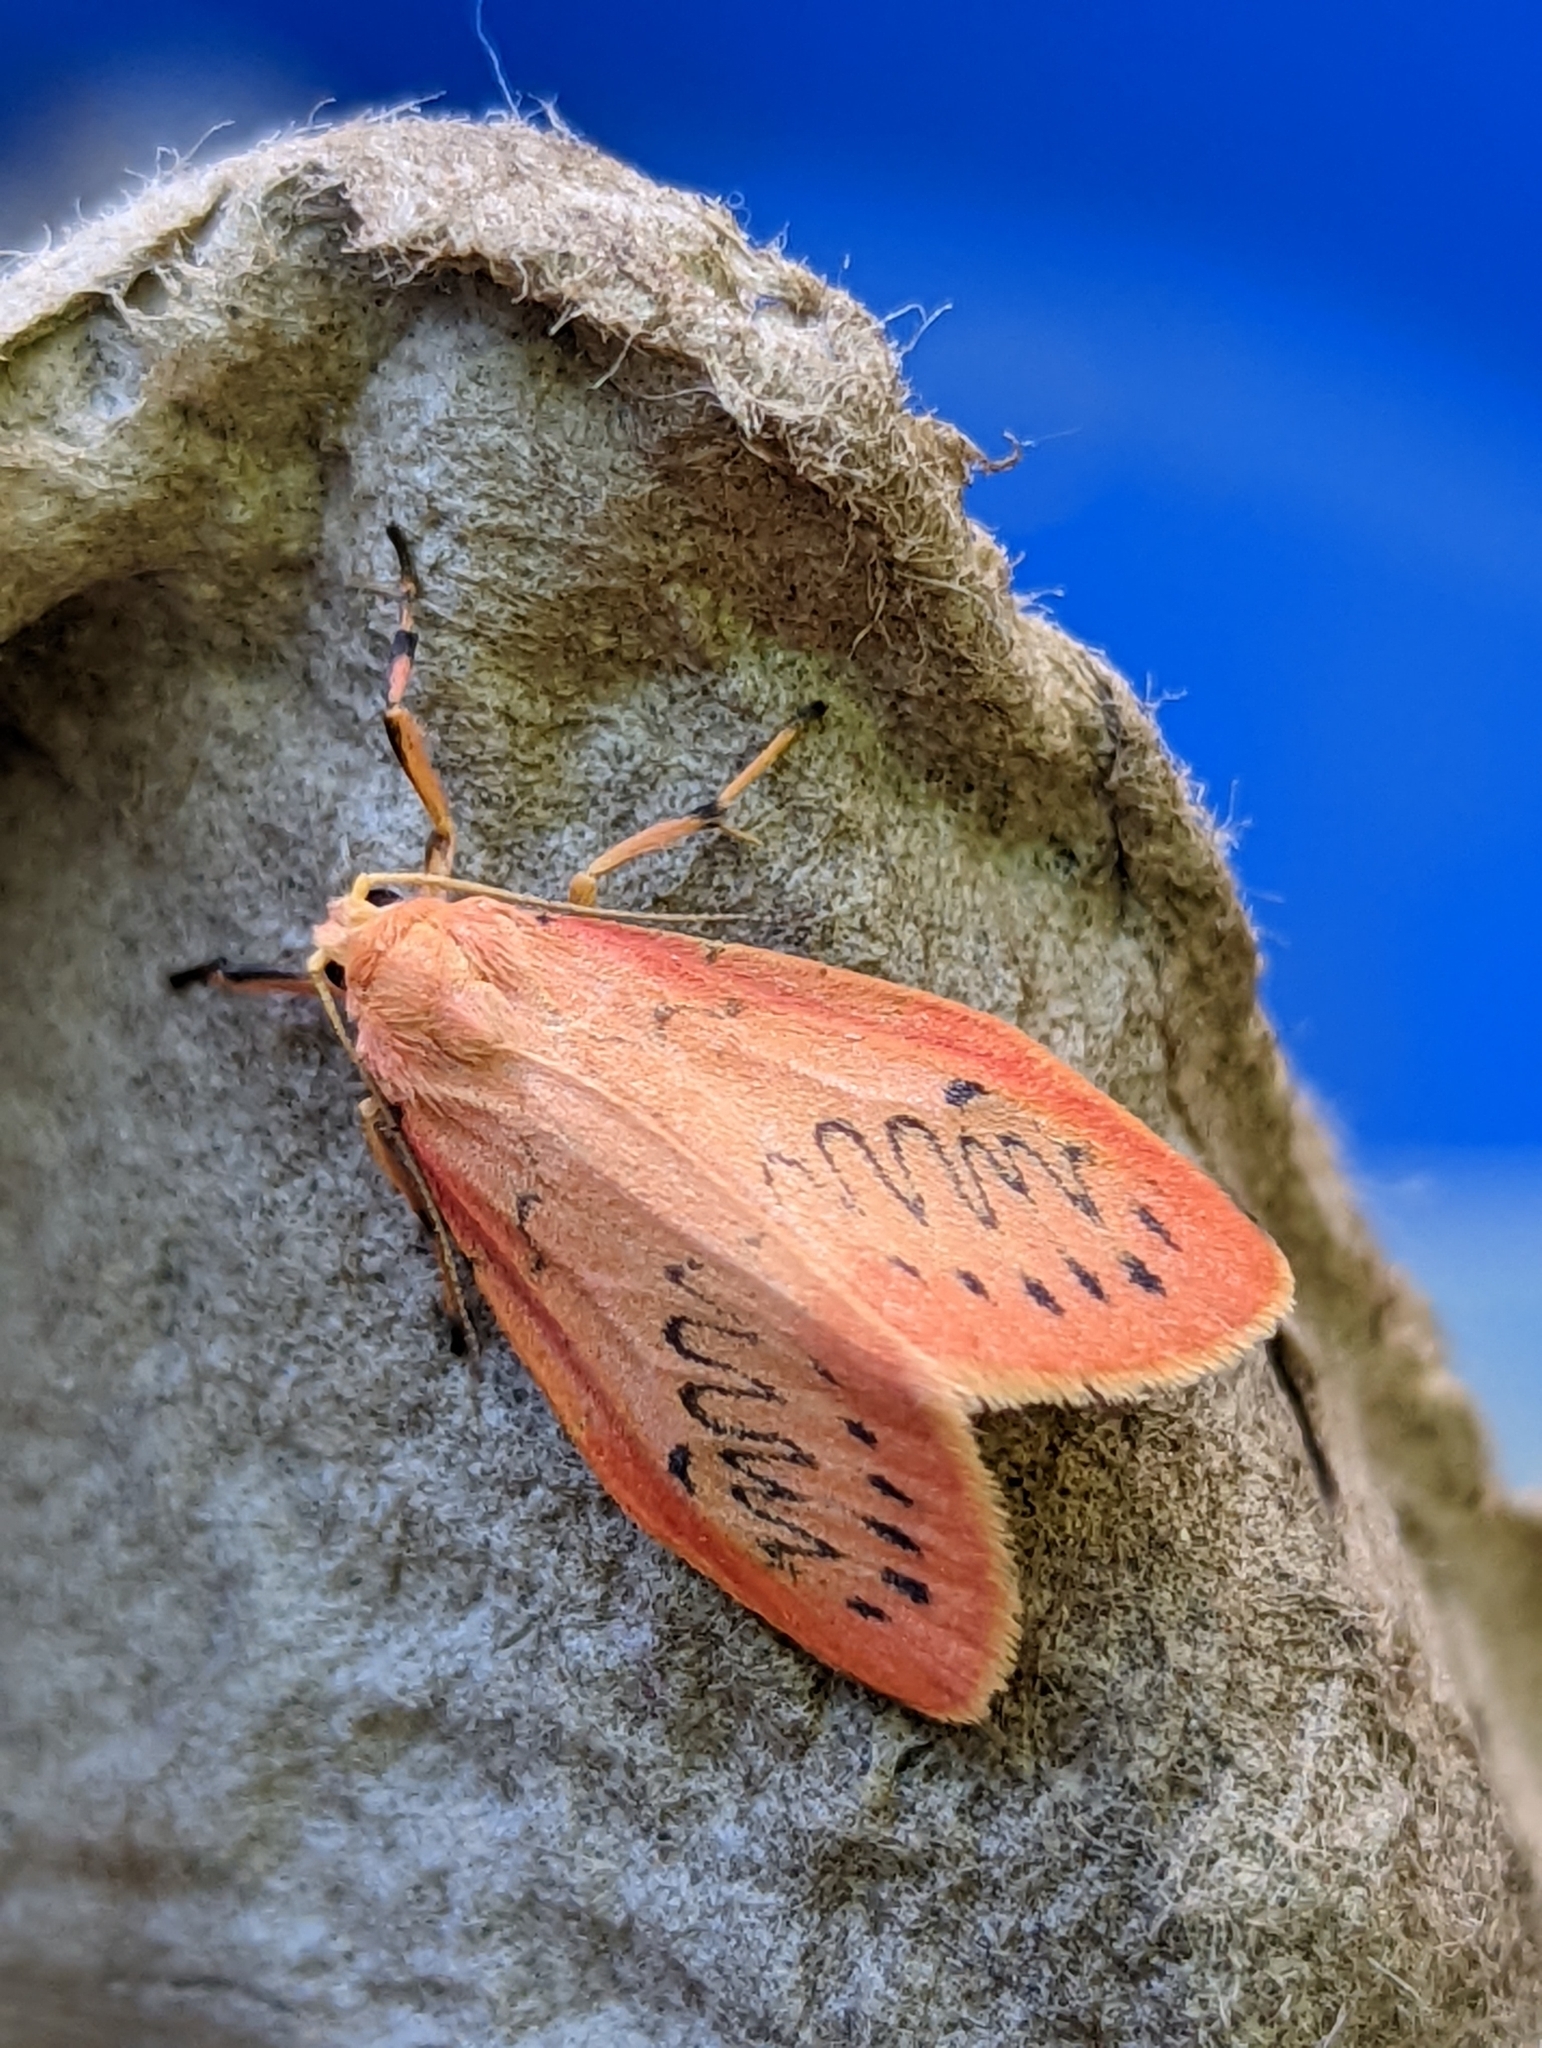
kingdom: Animalia
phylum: Arthropoda
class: Insecta
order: Lepidoptera
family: Erebidae
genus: Miltochrista
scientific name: Miltochrista miniata
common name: Rosy footman
